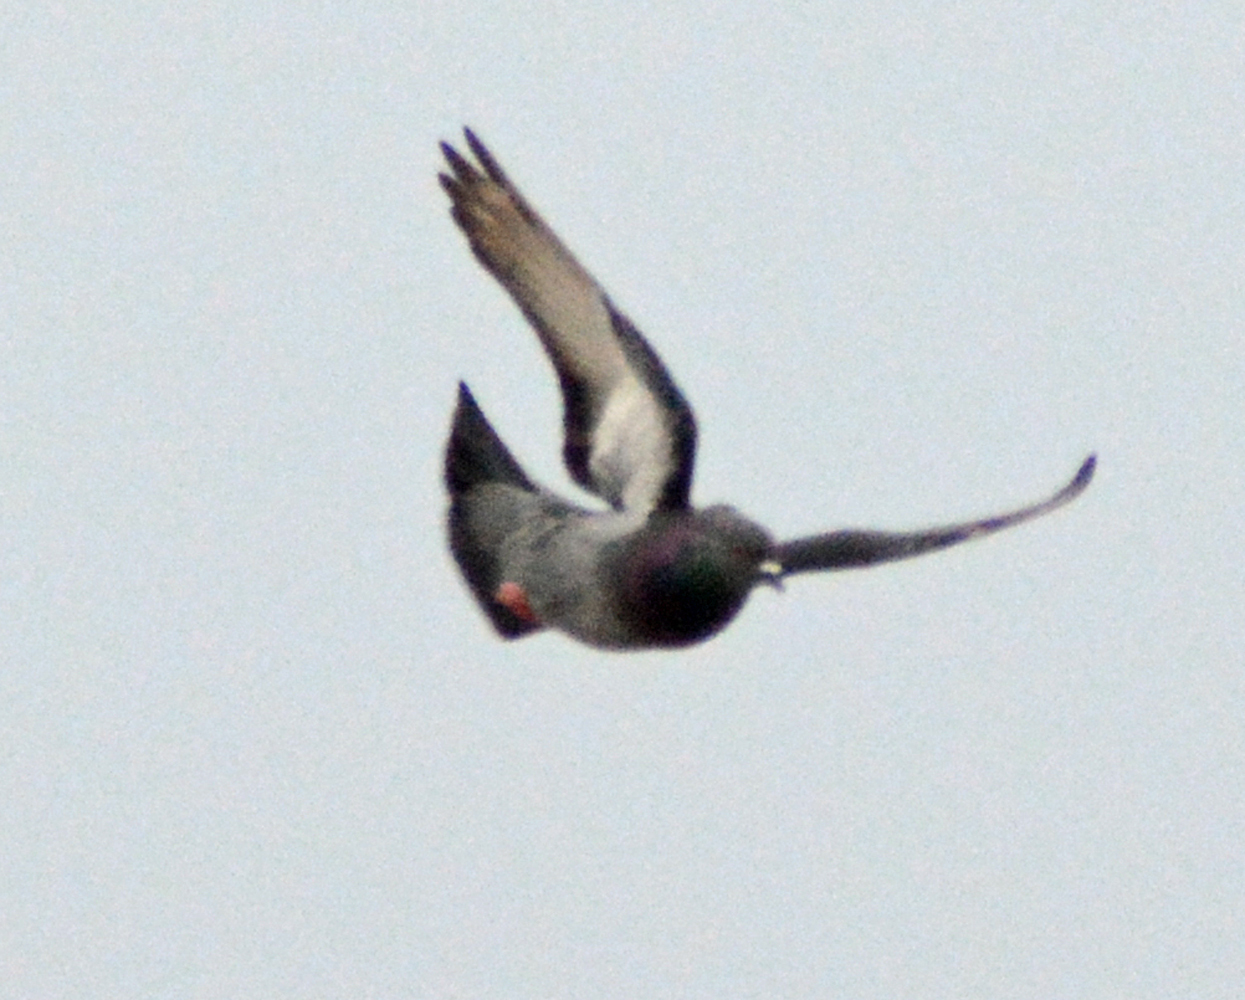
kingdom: Animalia
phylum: Chordata
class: Aves
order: Columbiformes
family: Columbidae
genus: Columba
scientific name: Columba livia
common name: Rock pigeon
